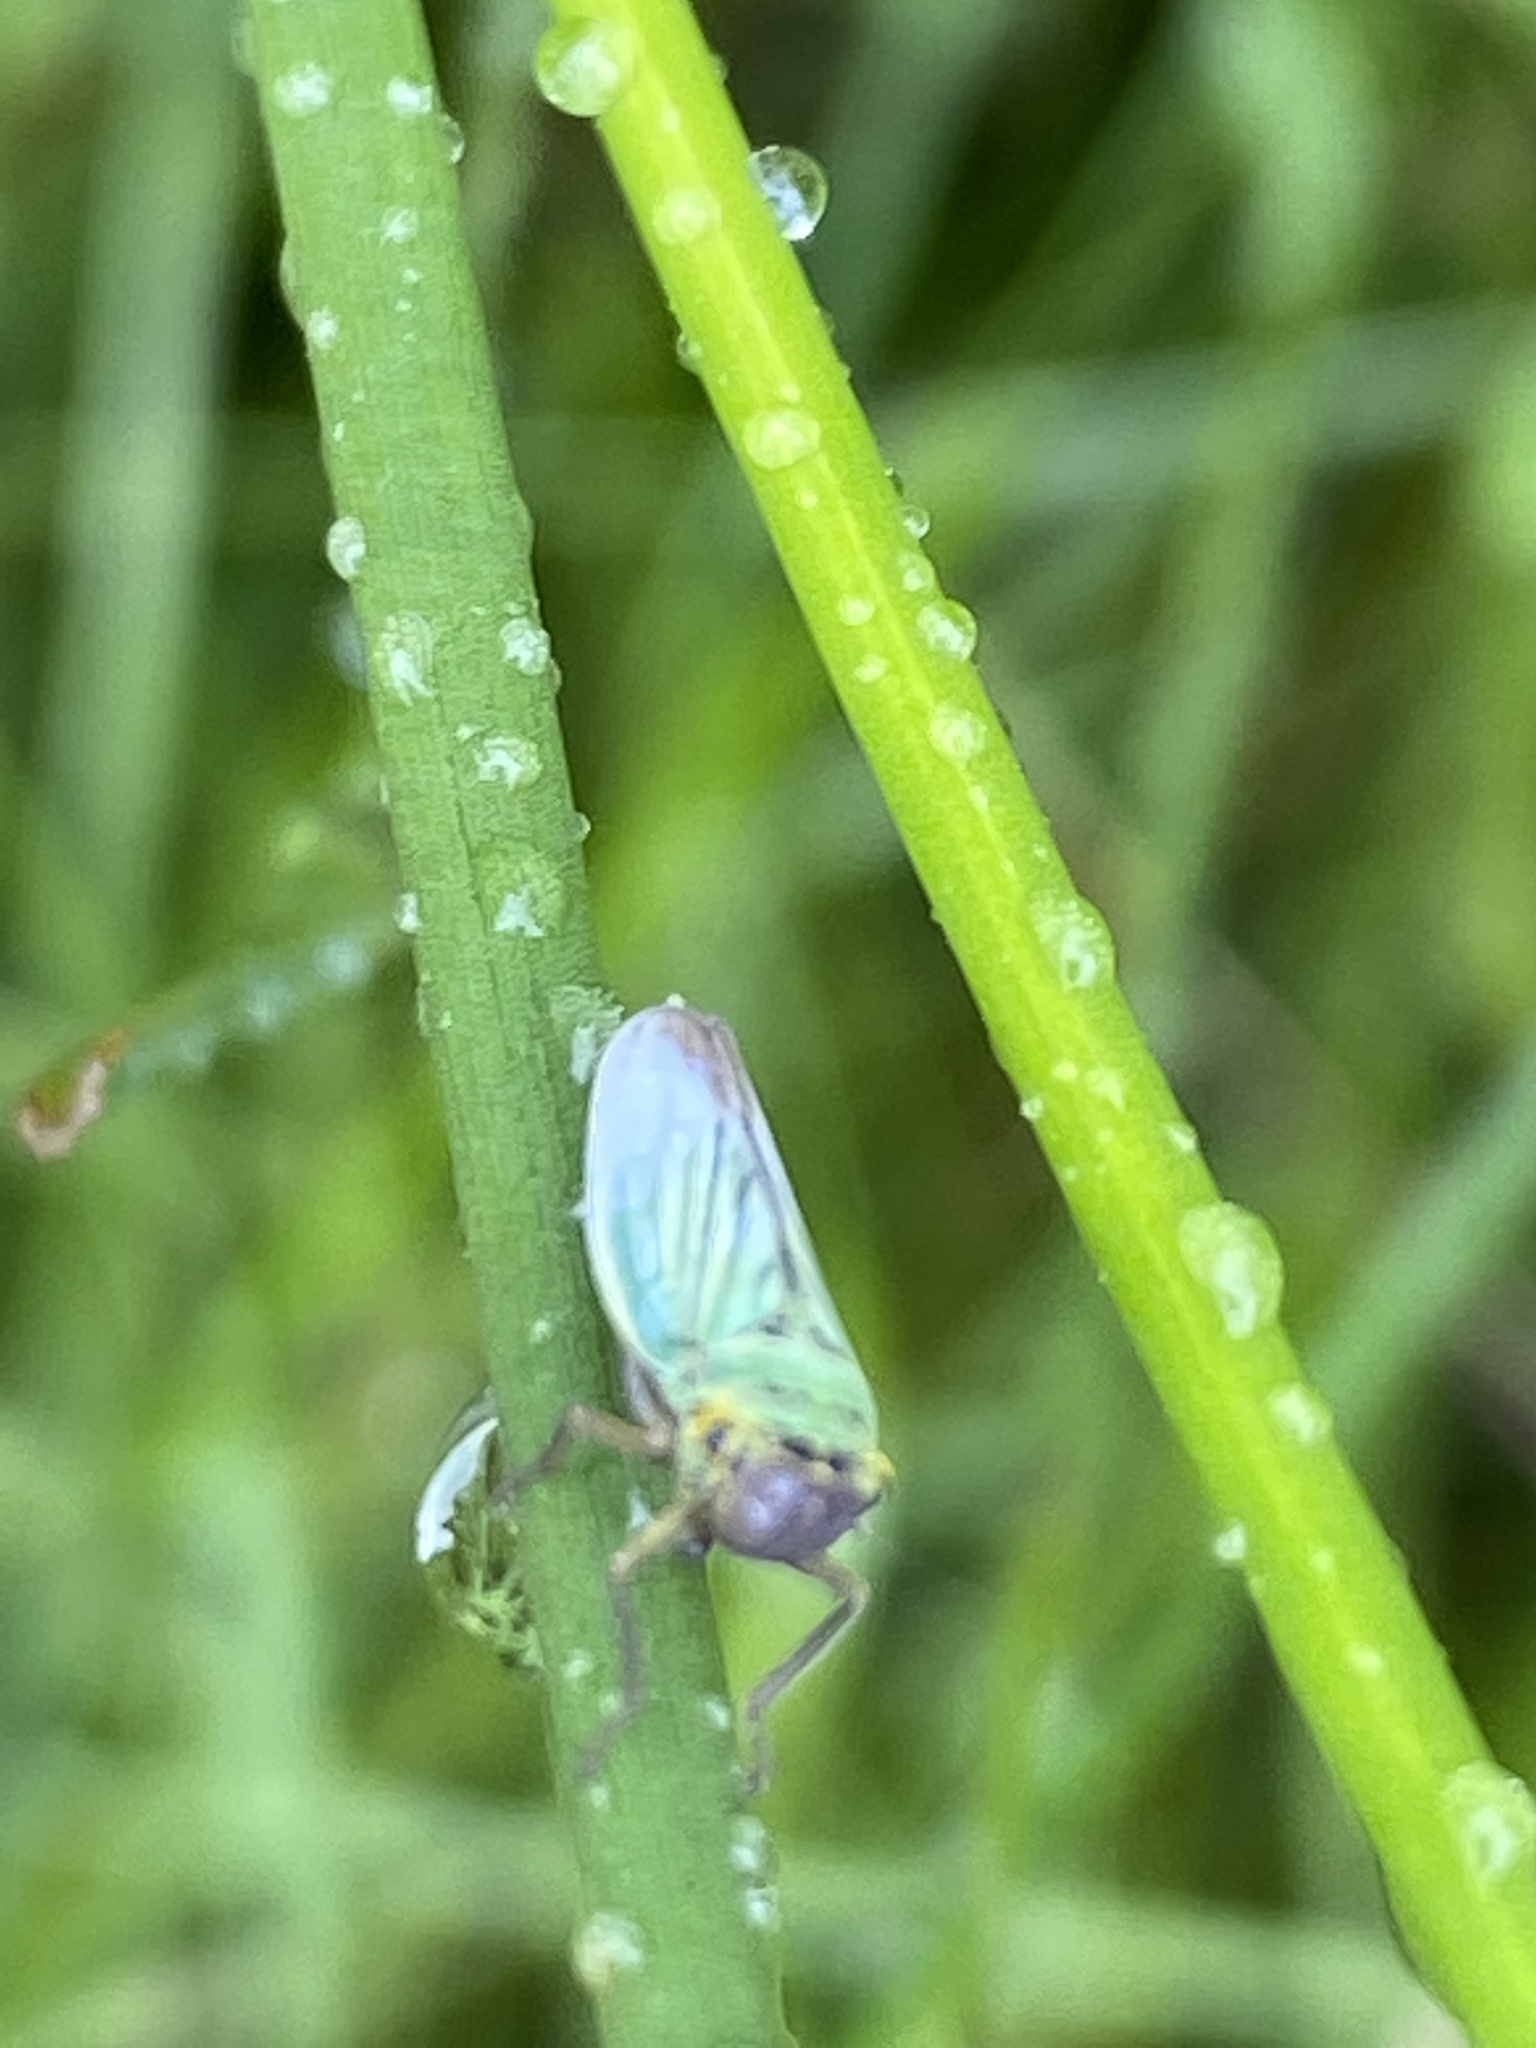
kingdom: Animalia
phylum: Arthropoda
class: Insecta
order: Hemiptera
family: Cicadellidae
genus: Cicadella
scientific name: Cicadella viridis
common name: Leafhopper
